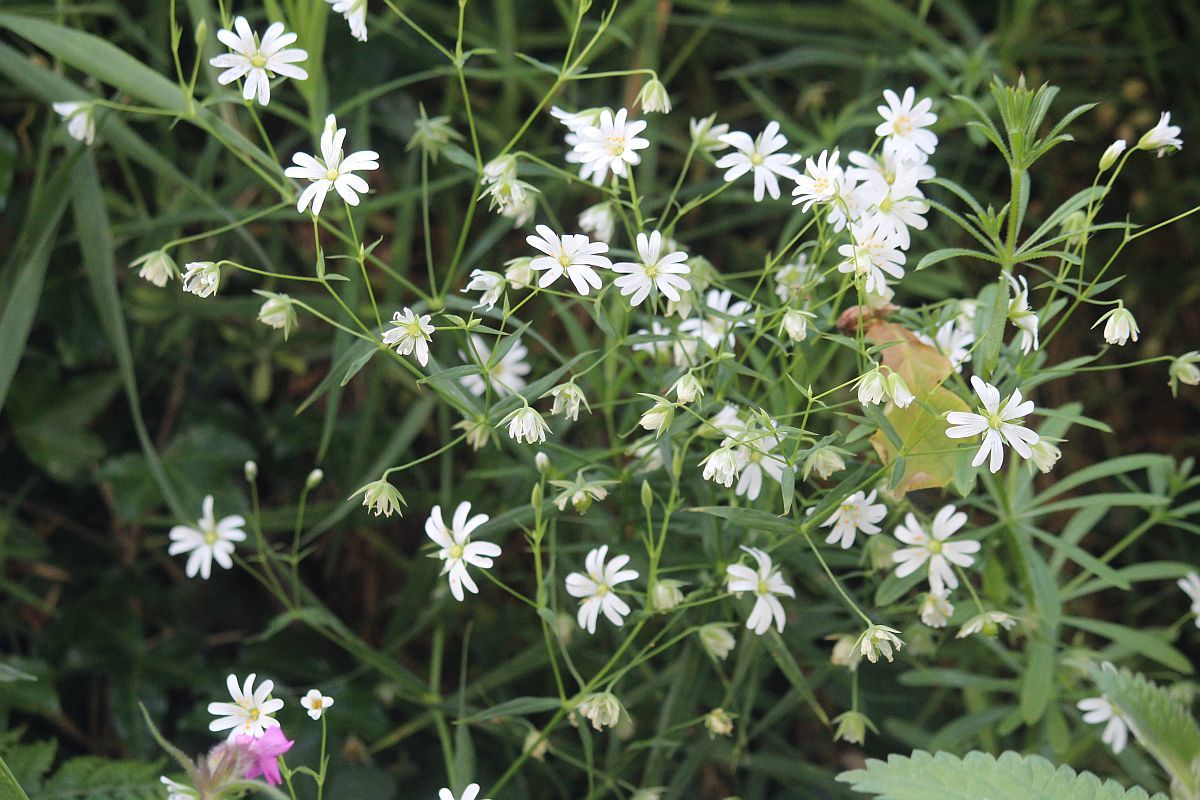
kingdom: Plantae
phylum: Tracheophyta
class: Magnoliopsida
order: Caryophyllales
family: Caryophyllaceae
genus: Rabelera
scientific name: Rabelera holostea
